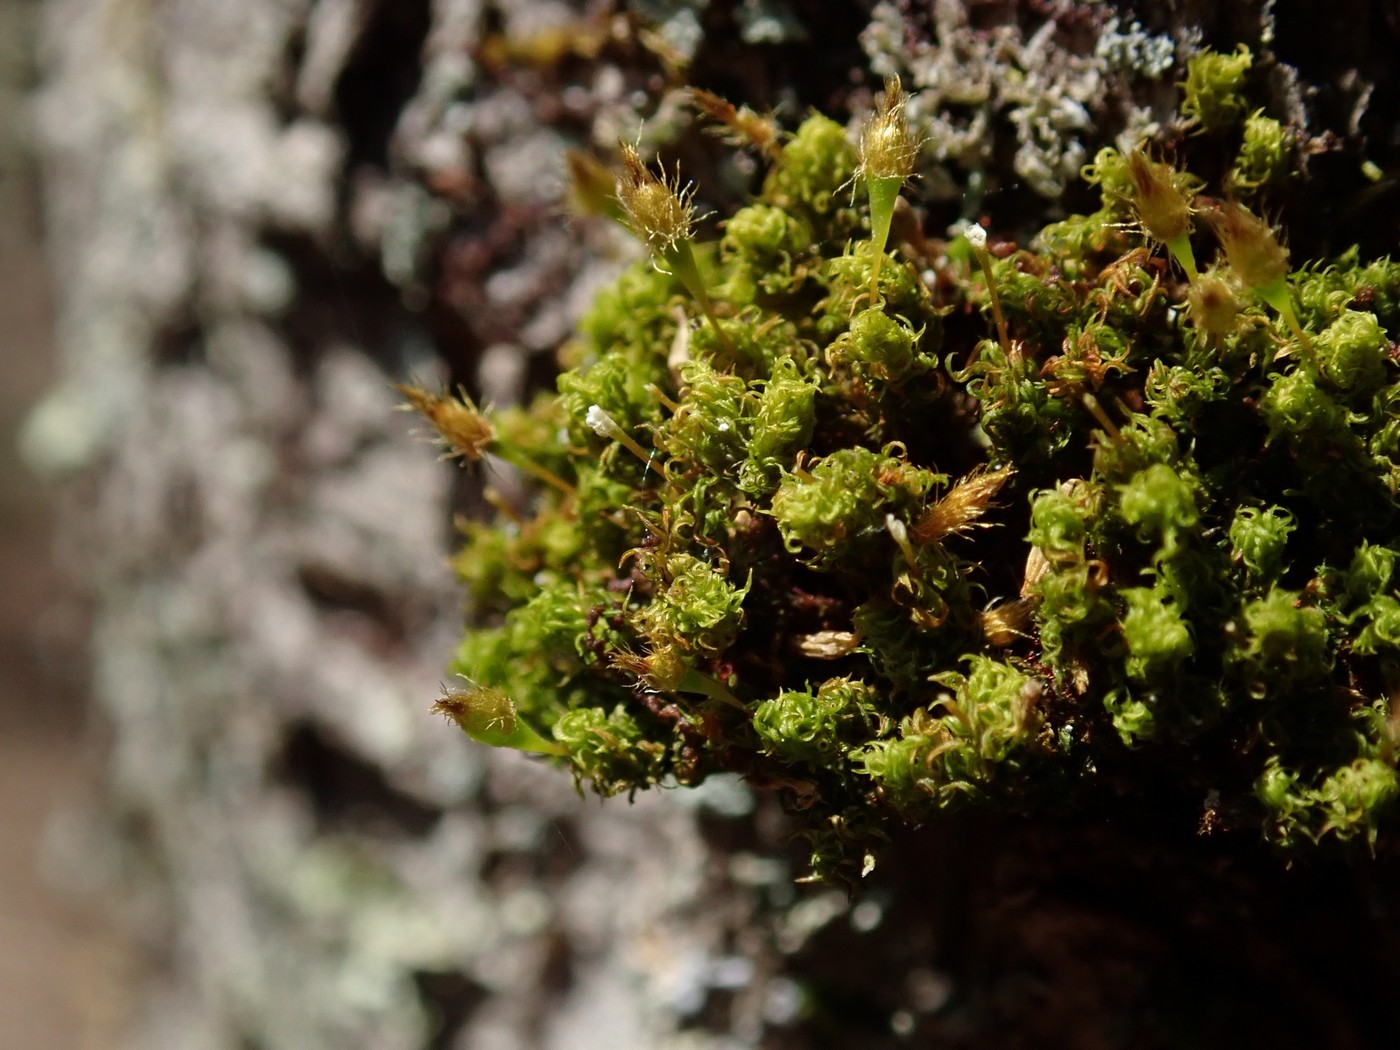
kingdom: Plantae
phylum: Bryophyta
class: Bryopsida
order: Orthotrichales
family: Orthotrichaceae
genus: Ulota
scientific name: Ulota crispa
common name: Crisped pincushion moss
